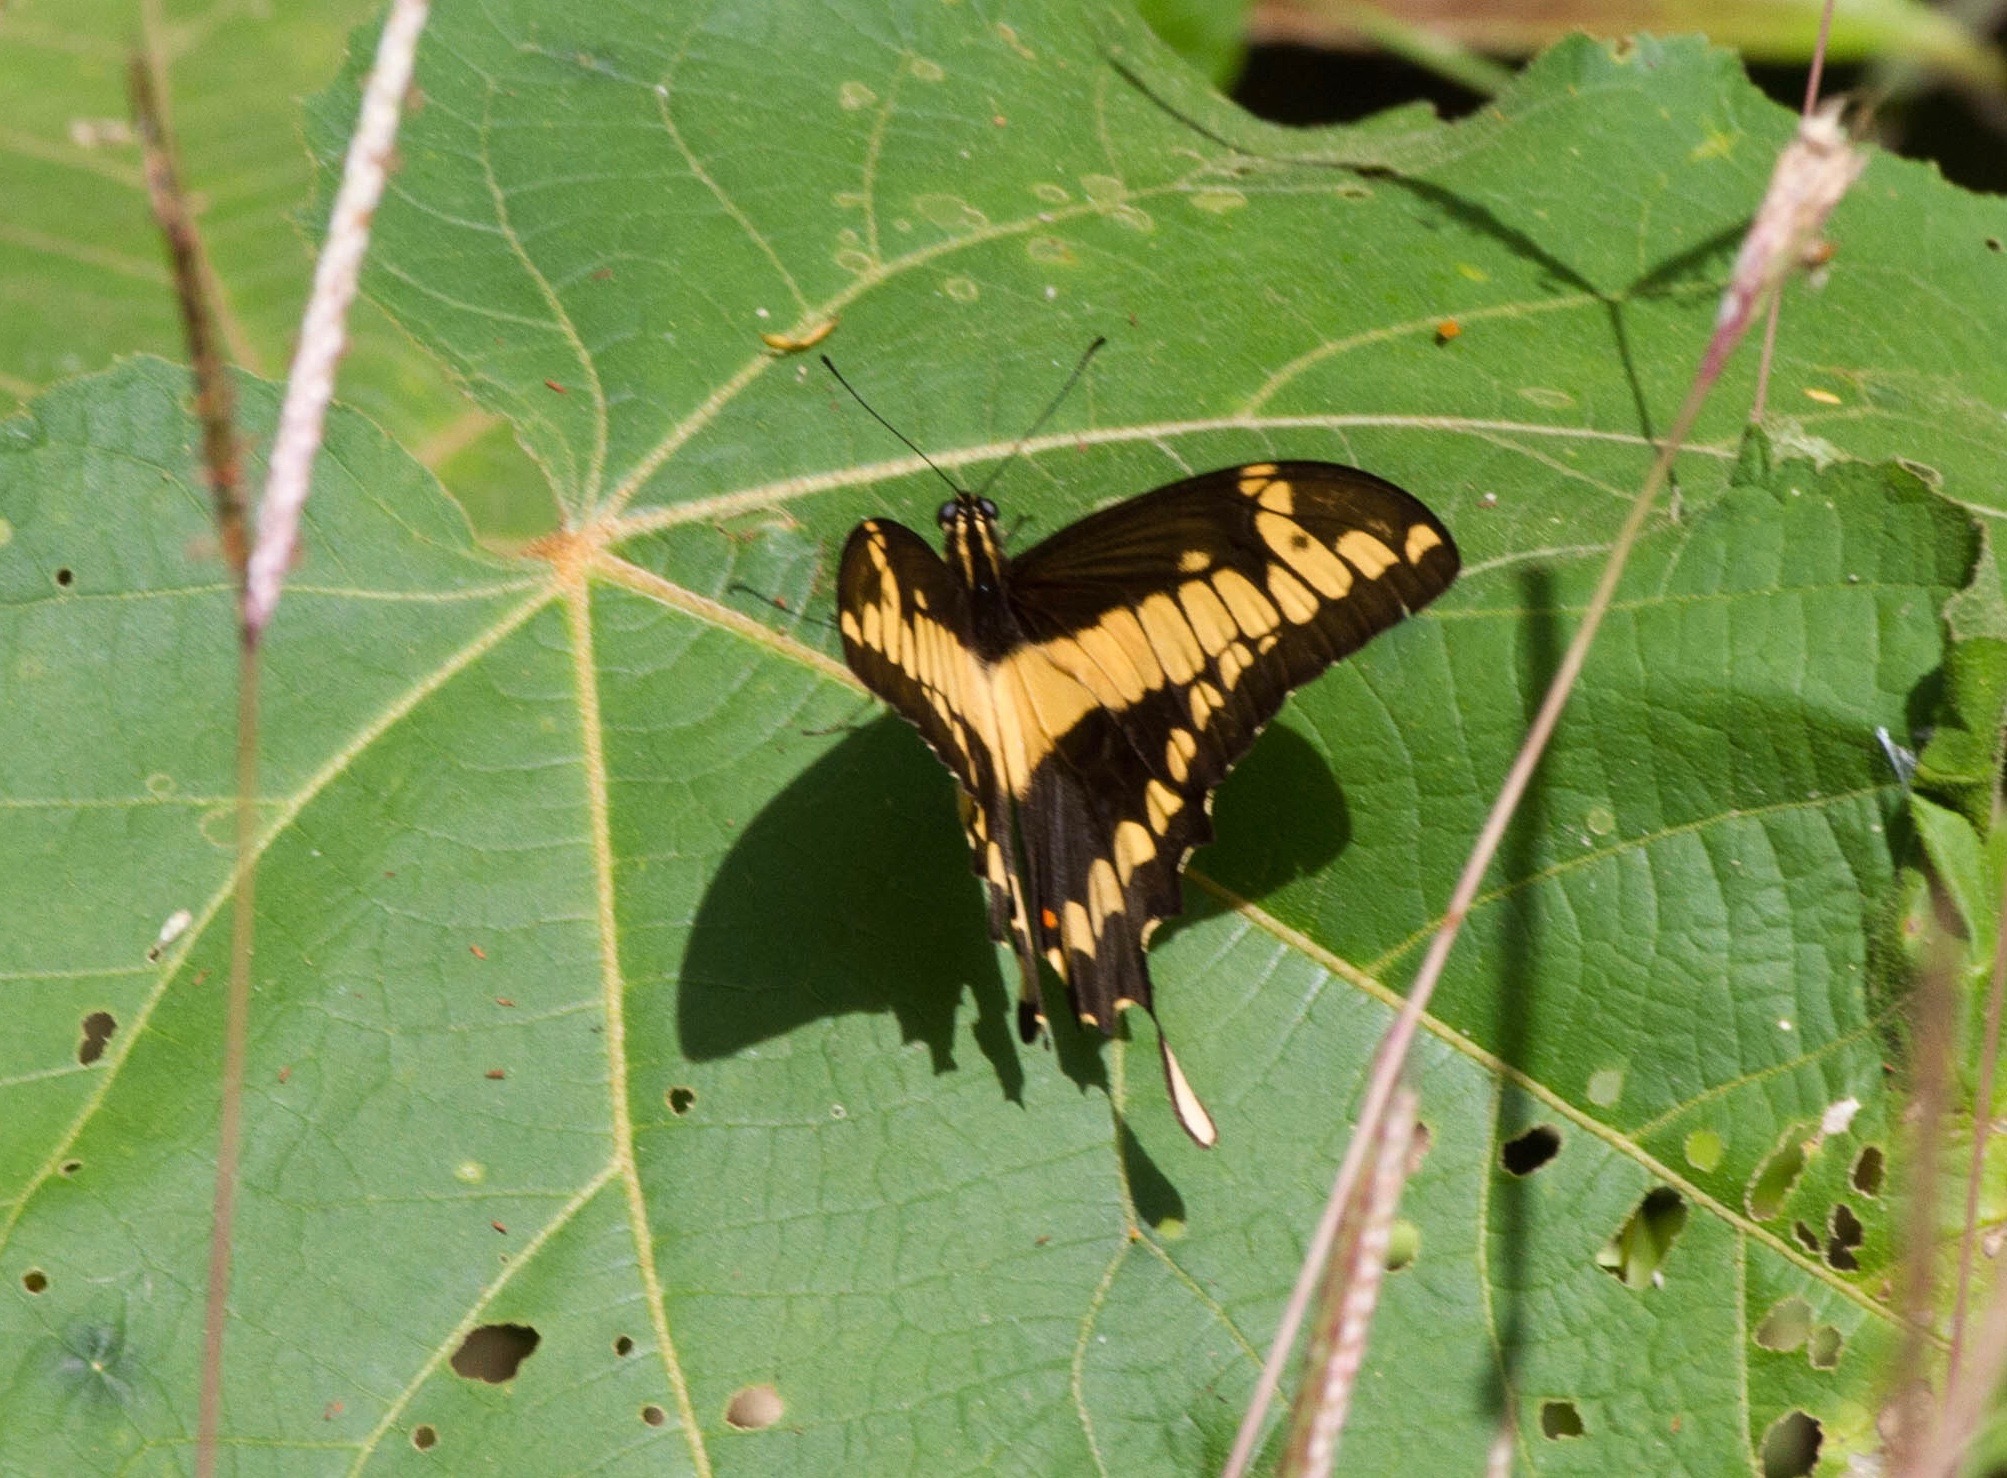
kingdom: Animalia
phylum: Arthropoda
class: Insecta
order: Lepidoptera
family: Papilionidae
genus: Papilio
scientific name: Papilio thoas
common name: King swallowtail
